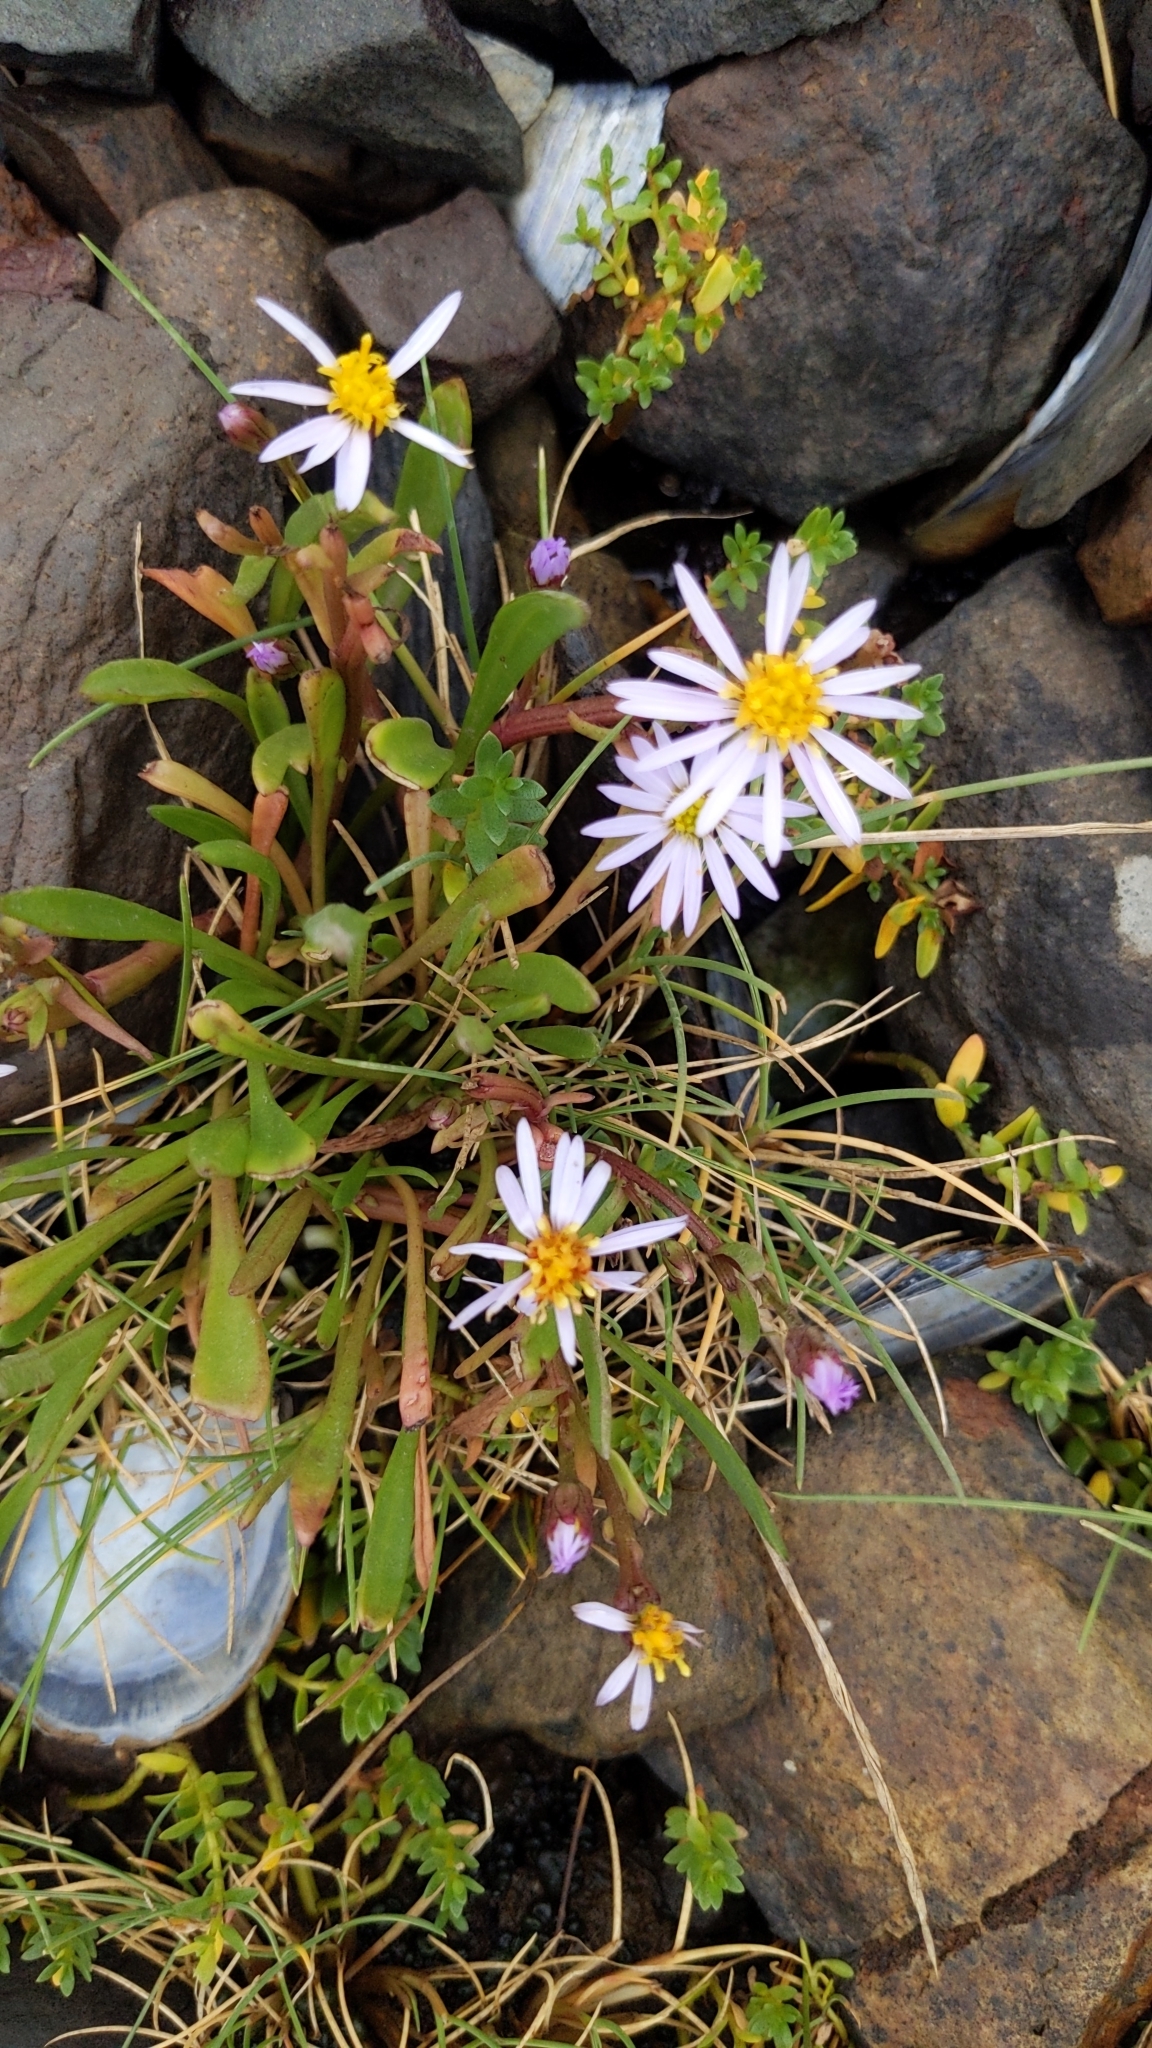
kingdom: Plantae
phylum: Tracheophyta
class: Magnoliopsida
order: Asterales
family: Asteraceae
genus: Tripolium
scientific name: Tripolium pannonicum
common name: Sea aster
